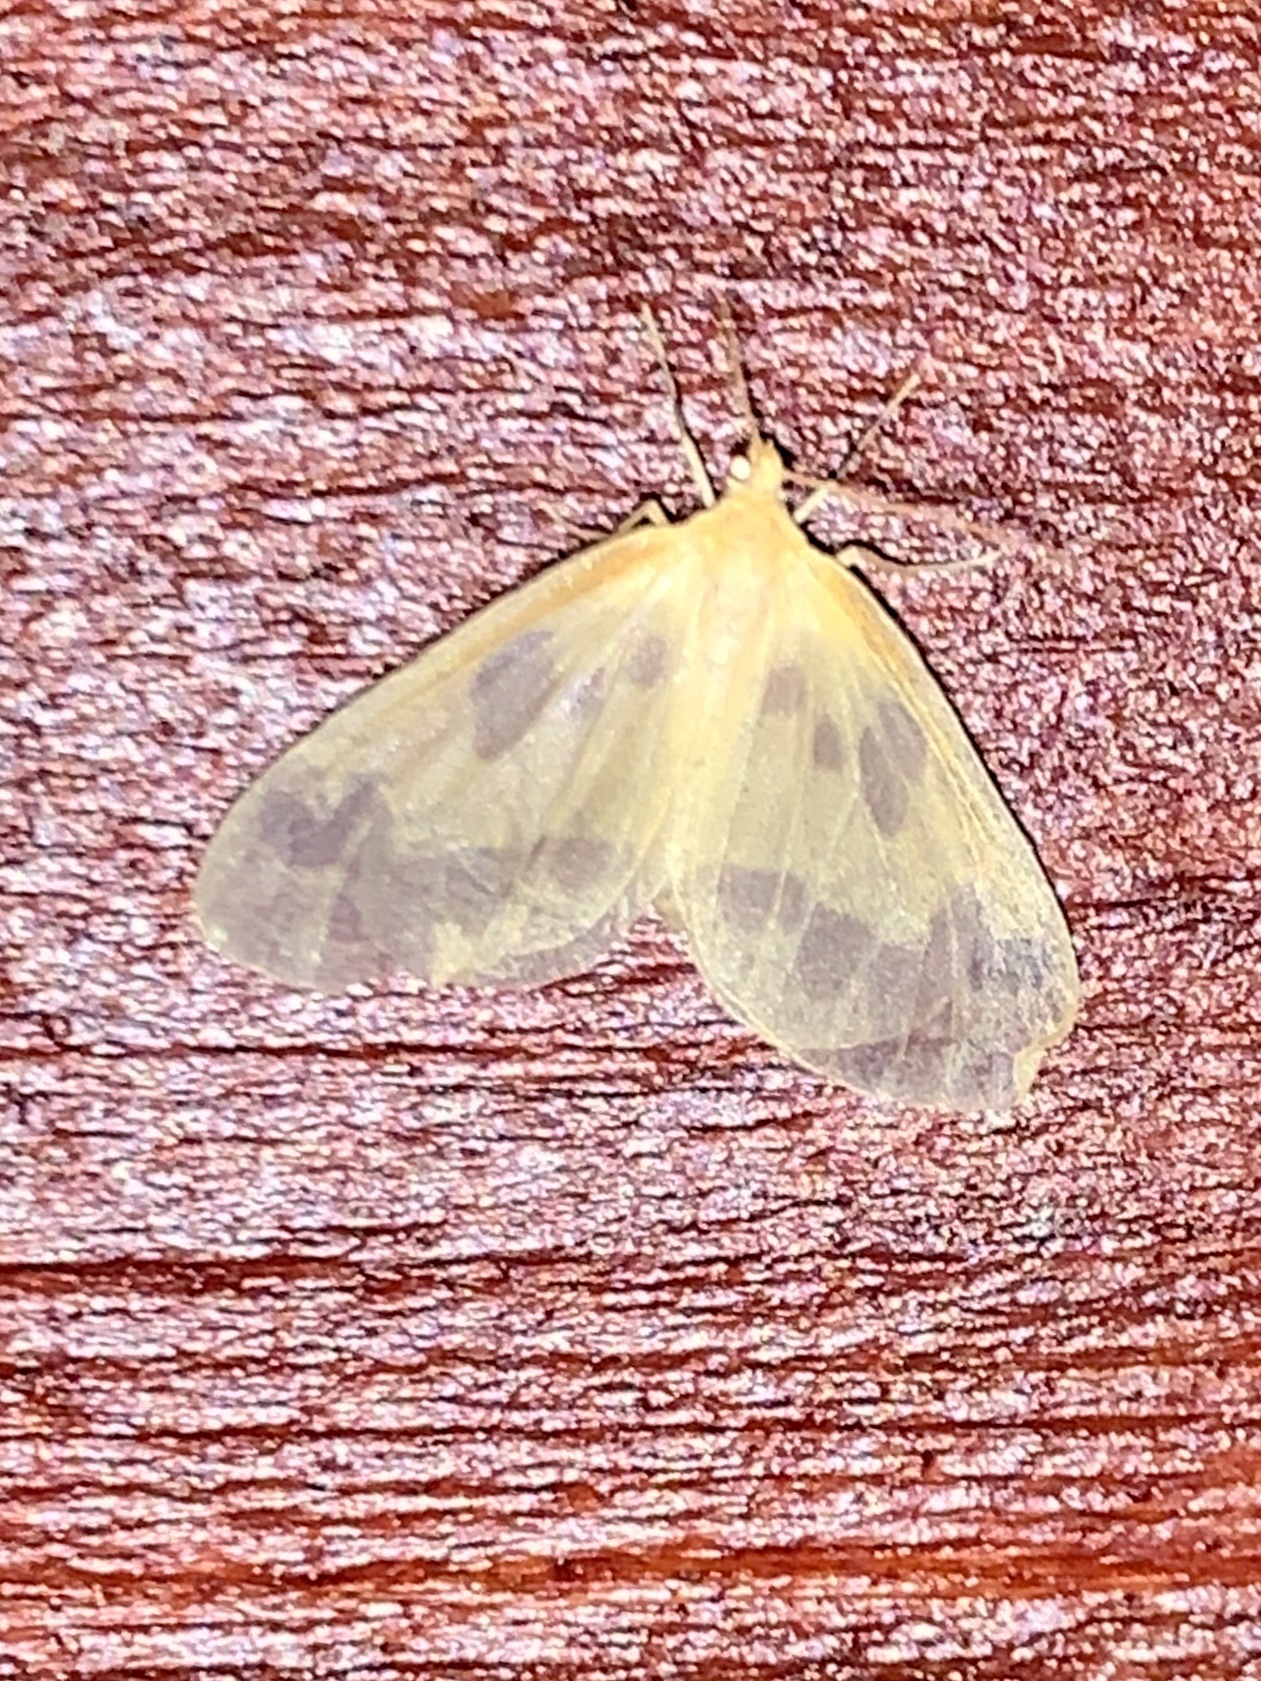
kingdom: Animalia
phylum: Arthropoda
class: Insecta
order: Lepidoptera
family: Geometridae
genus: Eubaphe
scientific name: Eubaphe mendica
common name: Beggar
